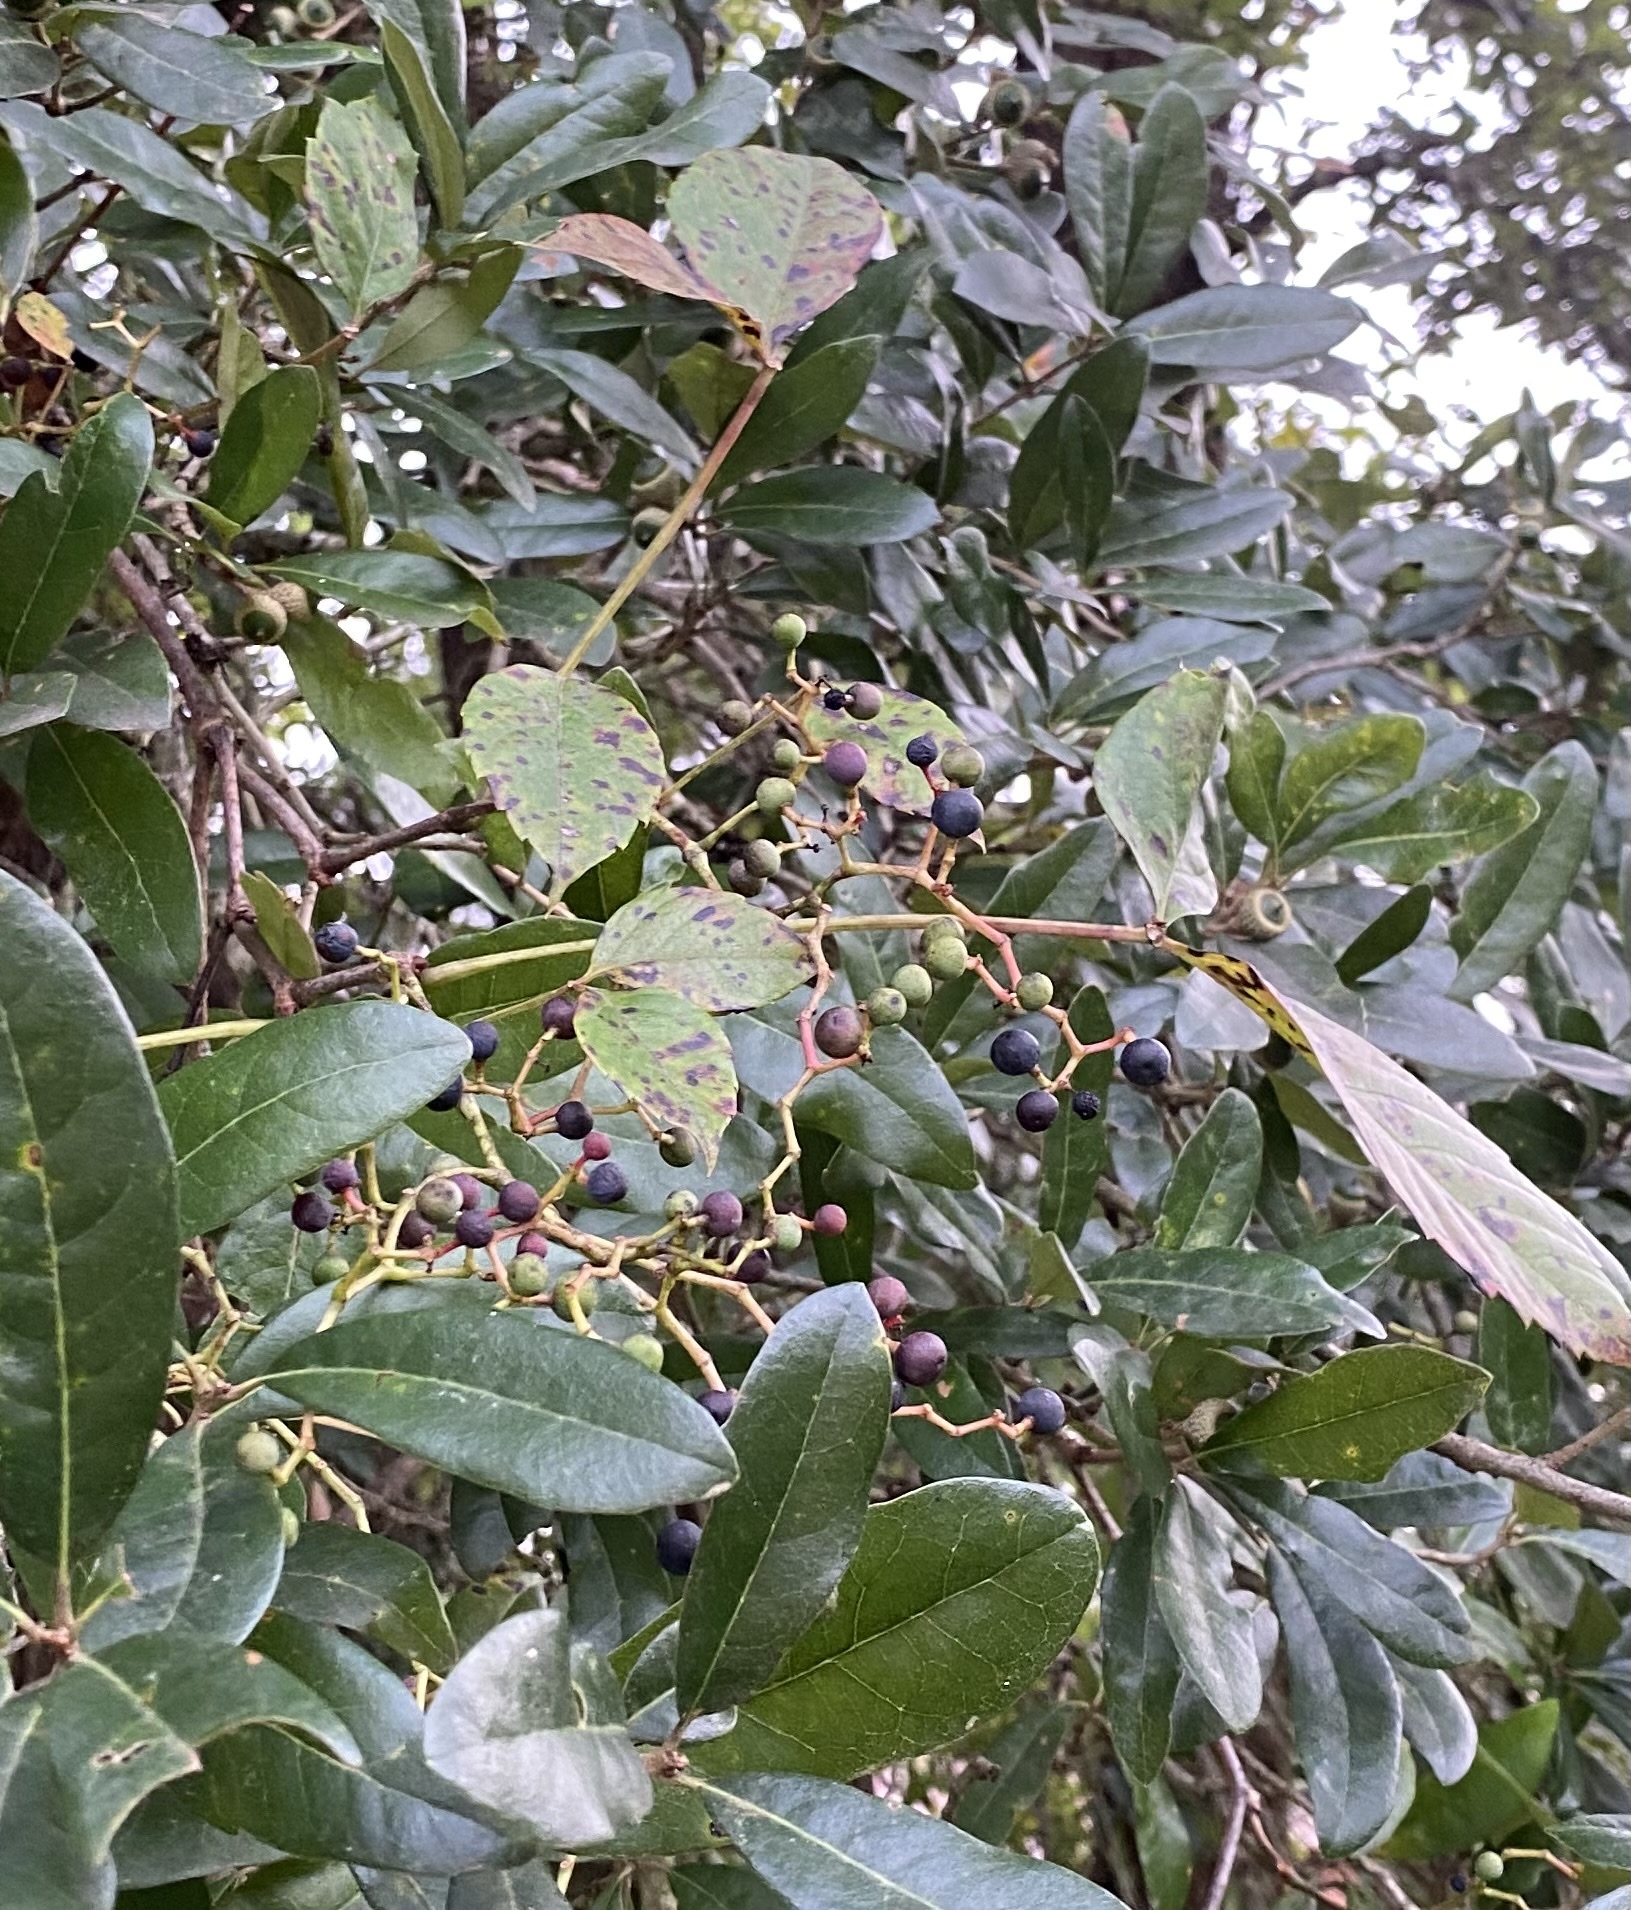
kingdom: Plantae
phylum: Tracheophyta
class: Magnoliopsida
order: Vitales
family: Vitaceae
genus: Parthenocissus
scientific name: Parthenocissus quinquefolia
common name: Virginia-creeper
